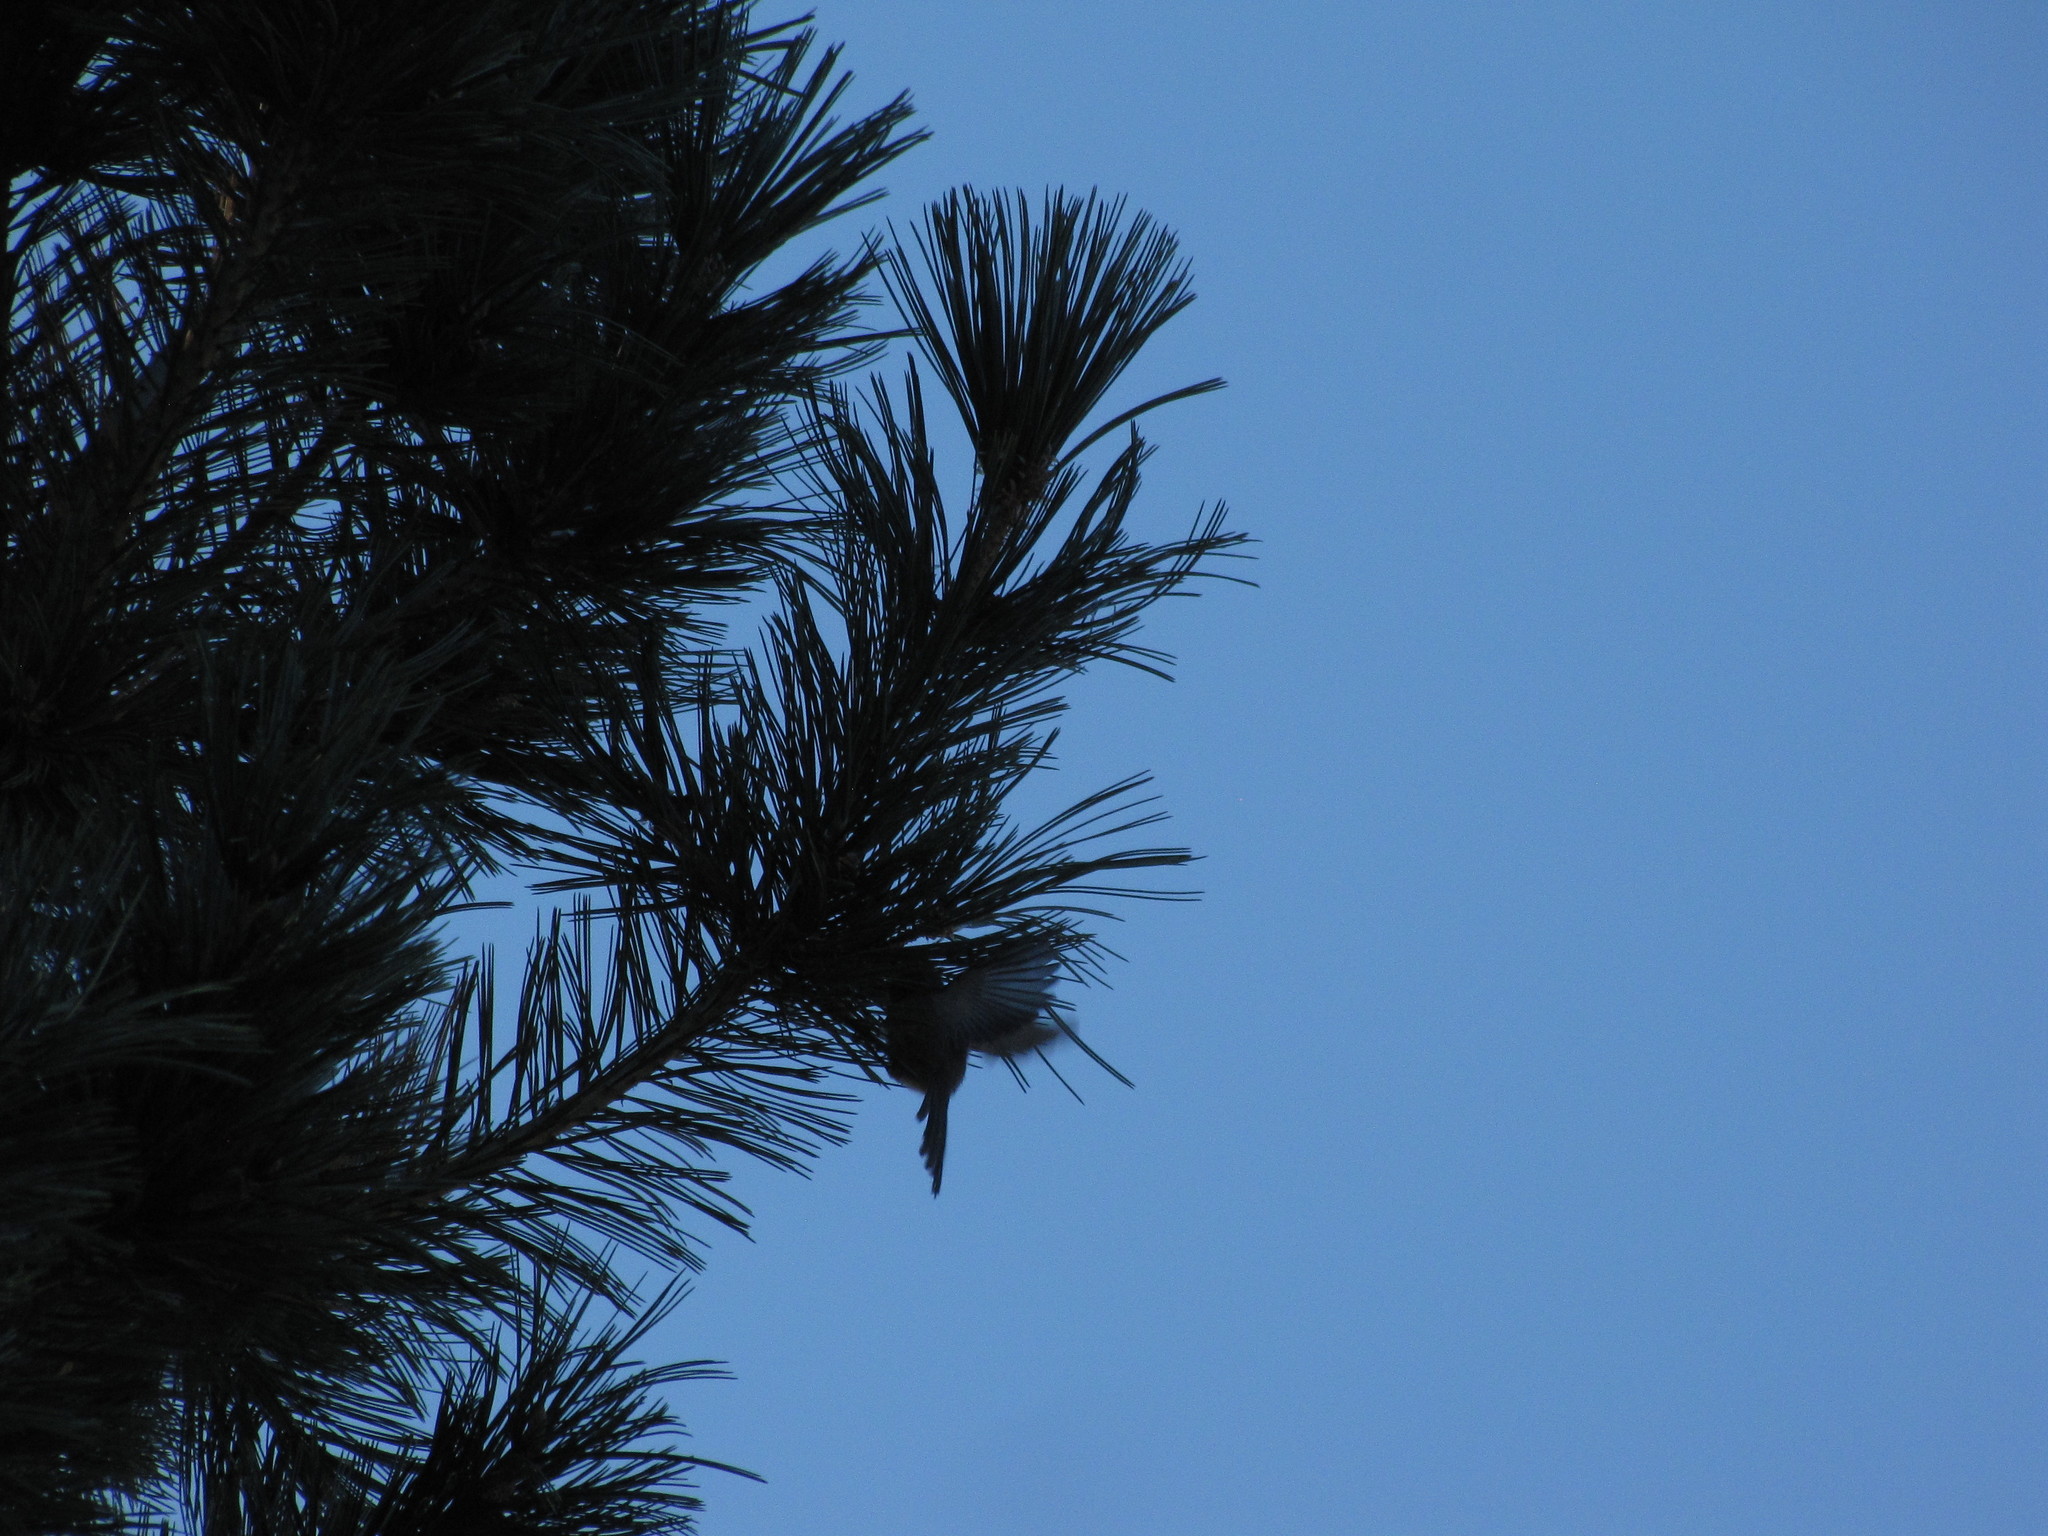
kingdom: Animalia
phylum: Chordata
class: Aves
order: Passeriformes
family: Aegithalidae
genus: Psaltriparus
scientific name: Psaltriparus minimus
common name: American bushtit
